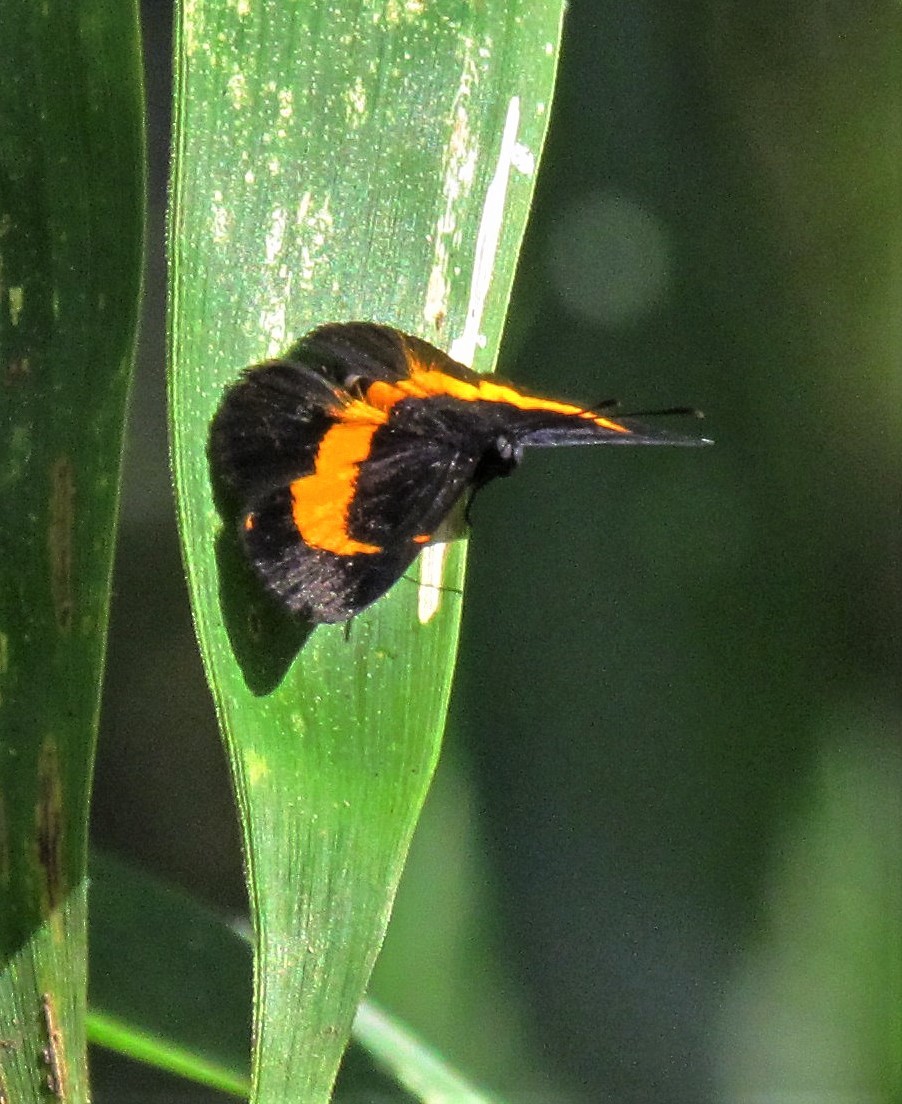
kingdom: Animalia
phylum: Arthropoda
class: Insecta
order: Lepidoptera
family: Riodinidae
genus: Pirascca
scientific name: Pirascca sagaris
